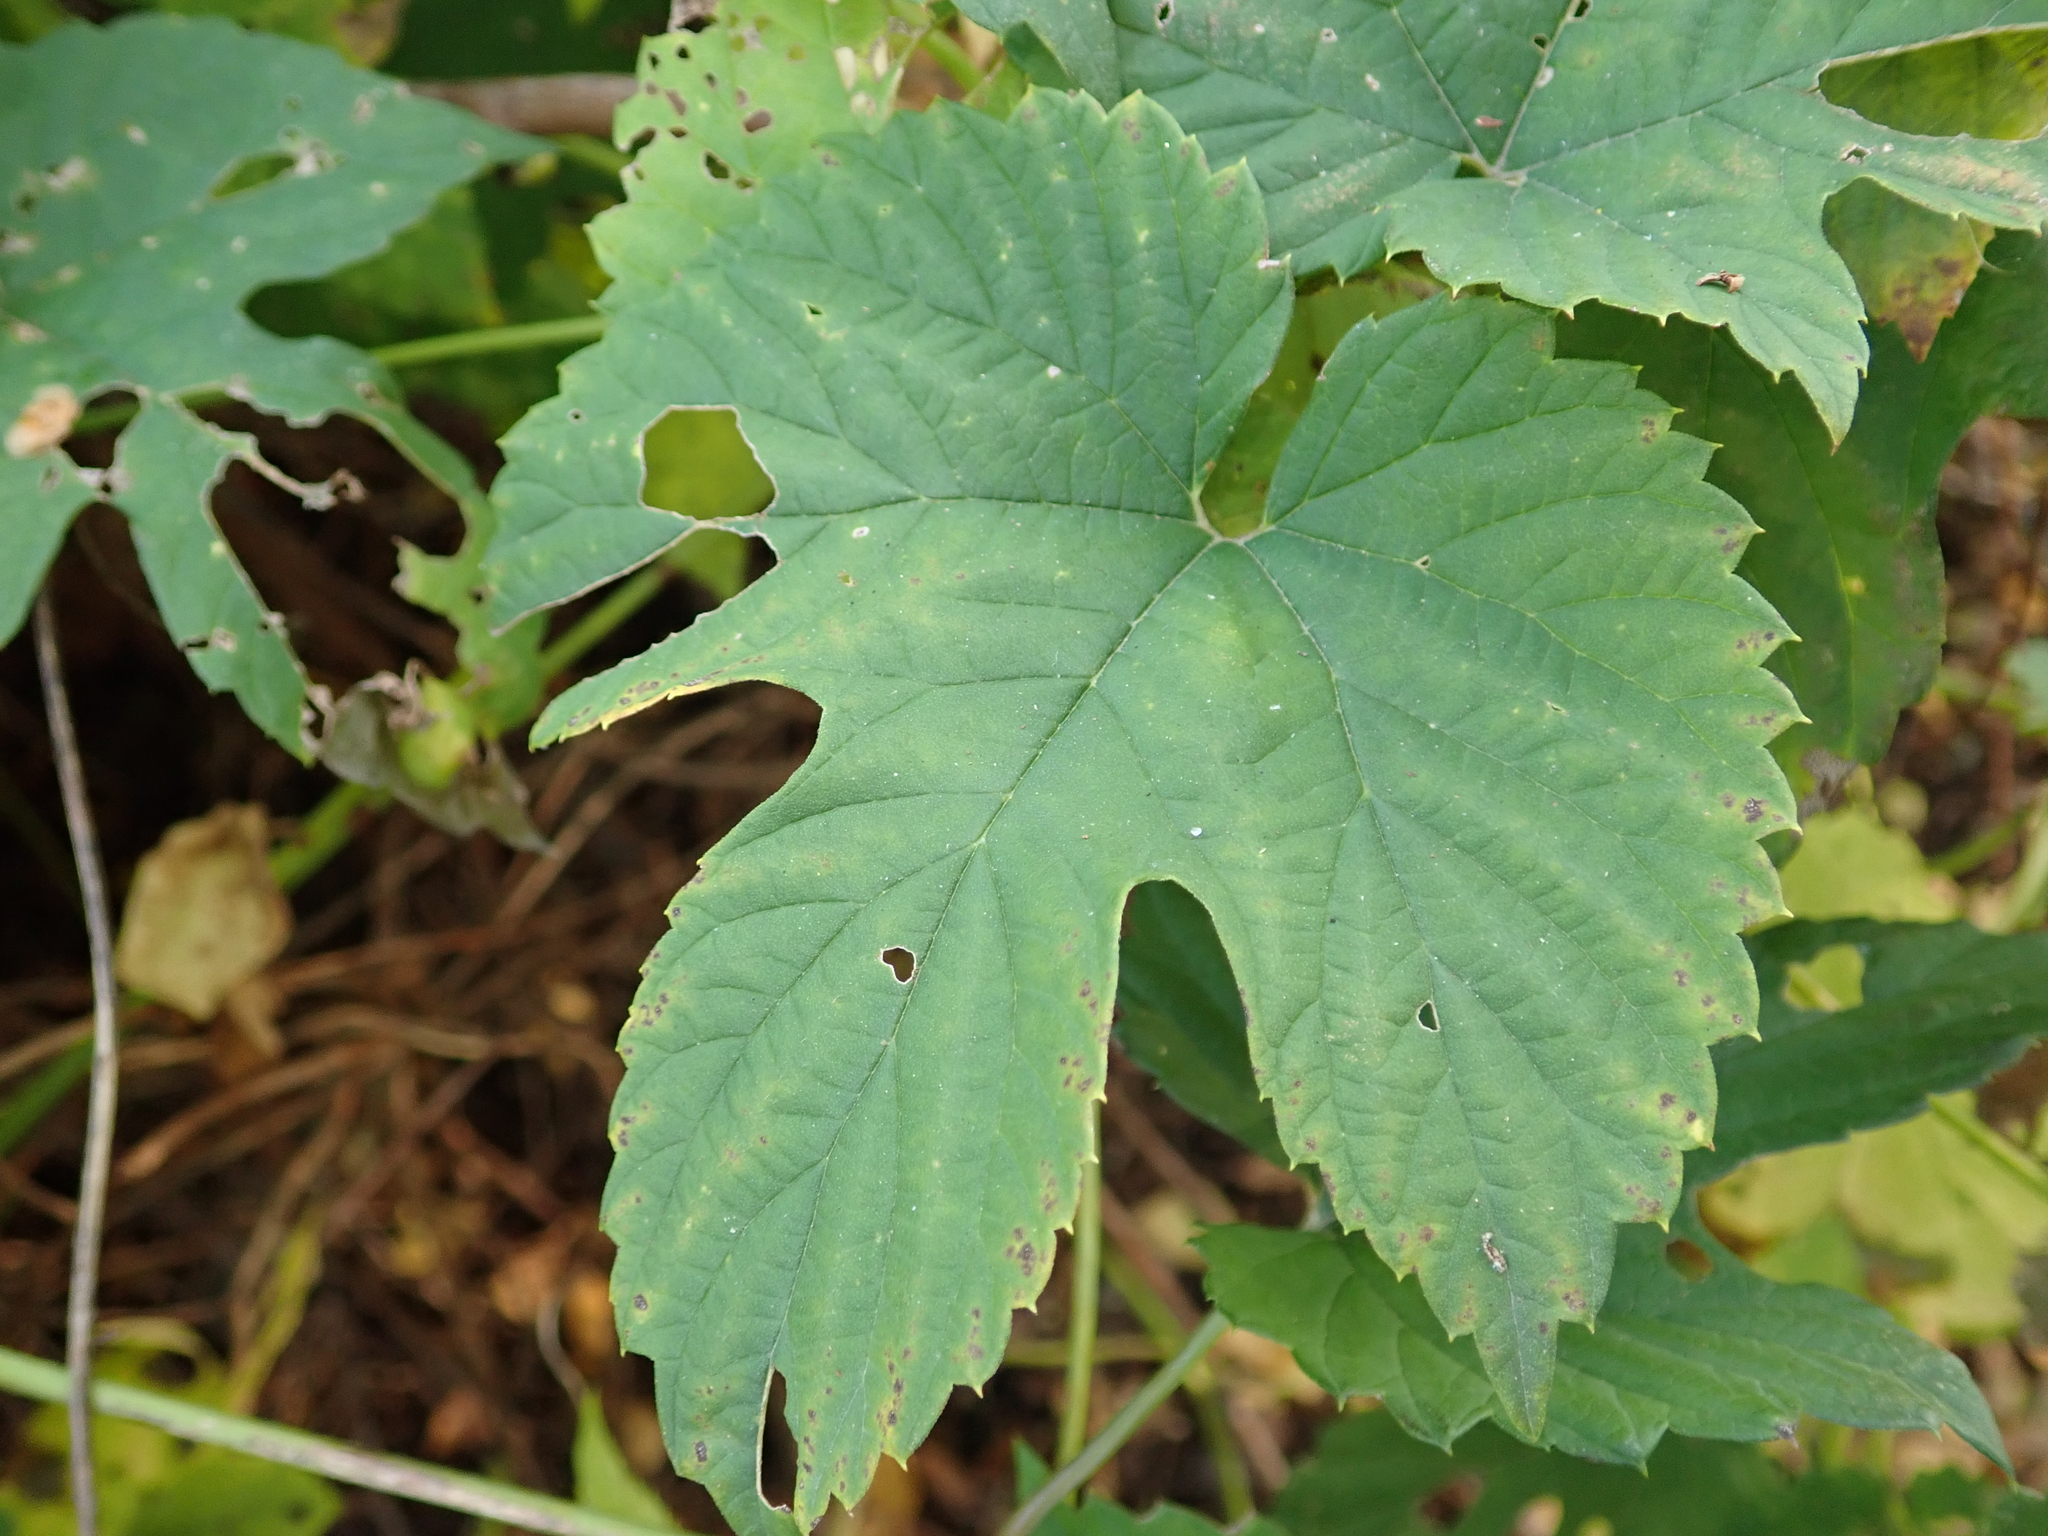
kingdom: Plantae
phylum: Tracheophyta
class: Magnoliopsida
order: Rosales
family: Cannabaceae
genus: Humulus
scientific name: Humulus lupulus
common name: Hop
